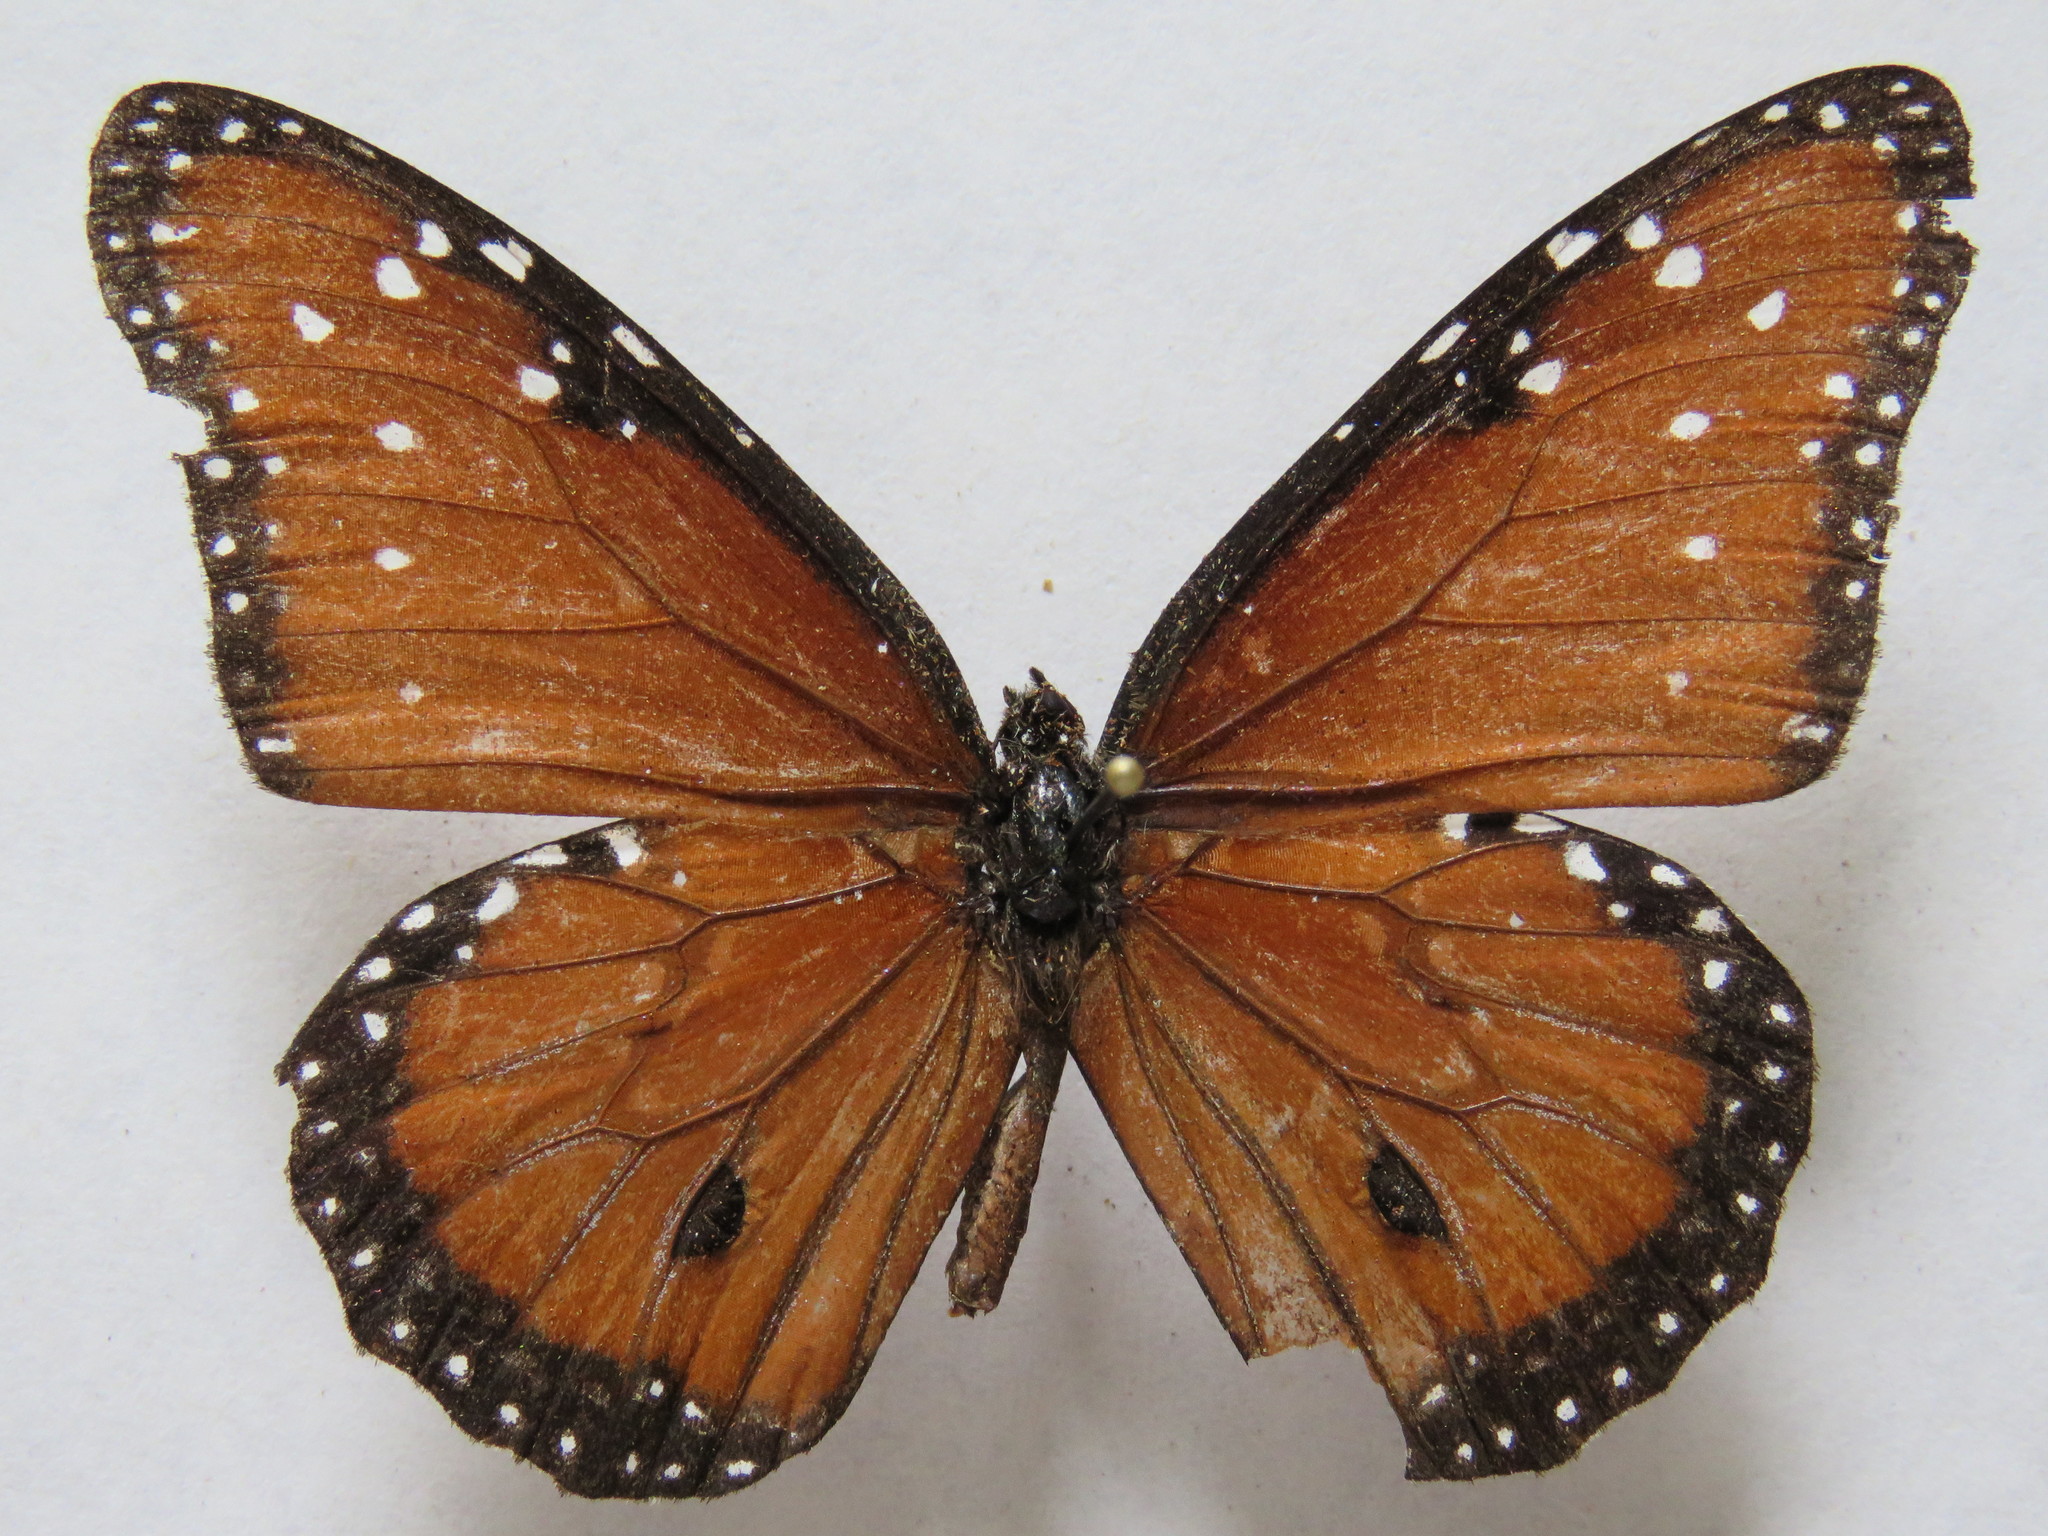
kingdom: Animalia
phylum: Arthropoda
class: Insecta
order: Lepidoptera
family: Nymphalidae
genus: Danaus
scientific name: Danaus gilippus
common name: Queen
